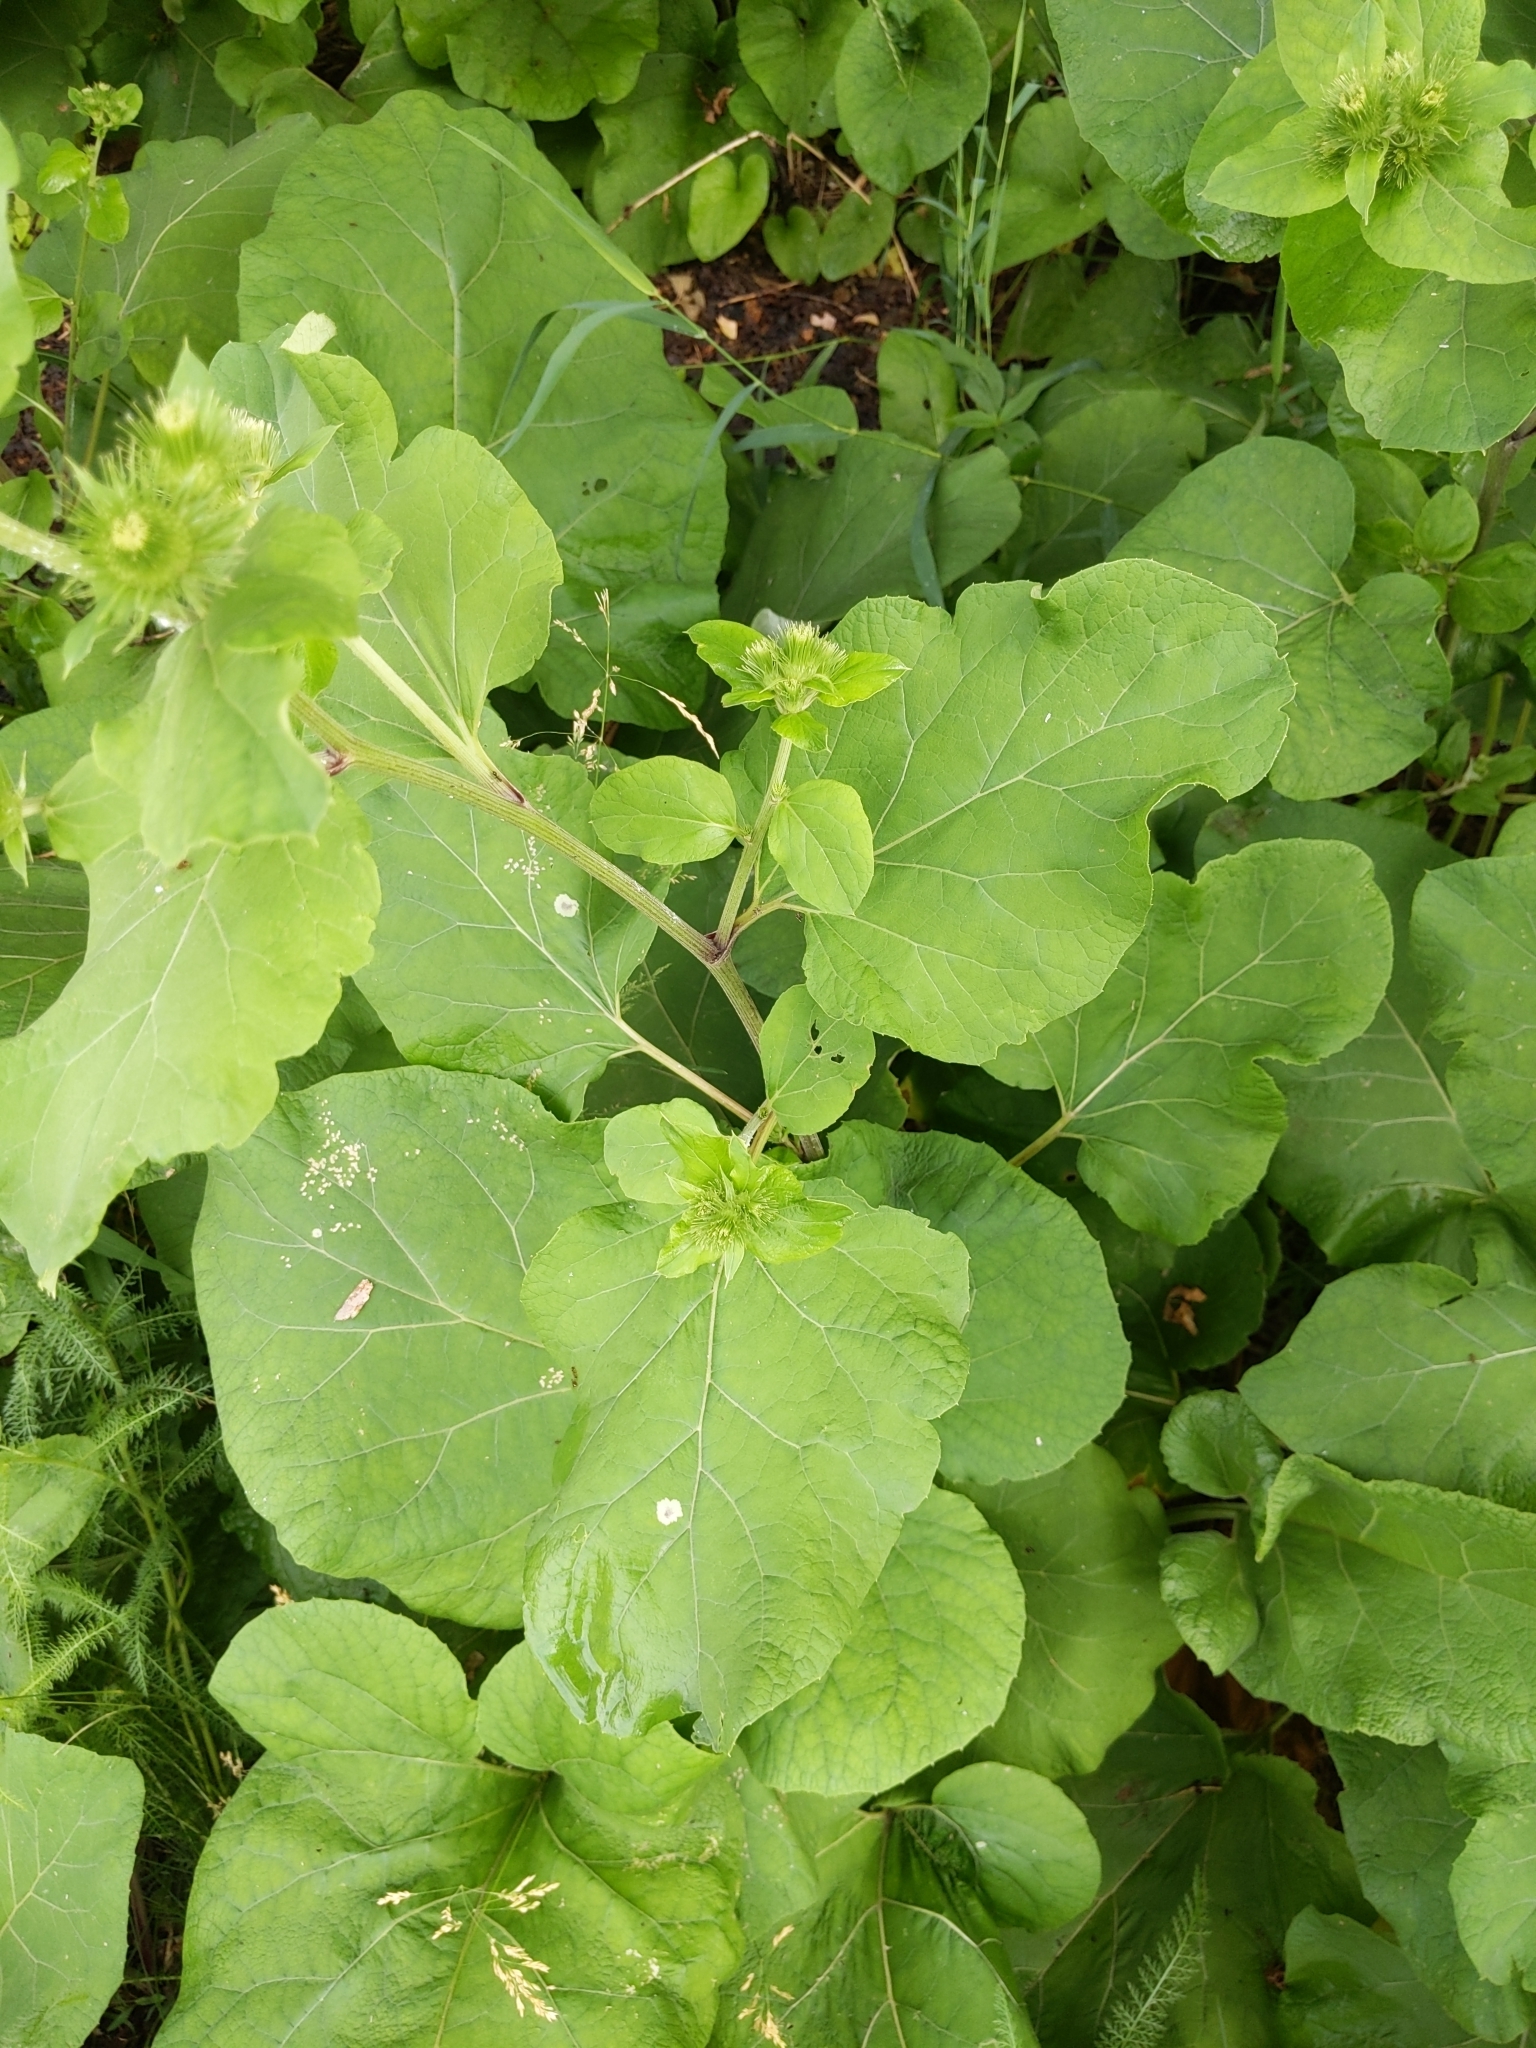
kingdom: Plantae
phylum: Tracheophyta
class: Magnoliopsida
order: Asterales
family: Asteraceae
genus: Arctium
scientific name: Arctium lappa
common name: Greater burdock
